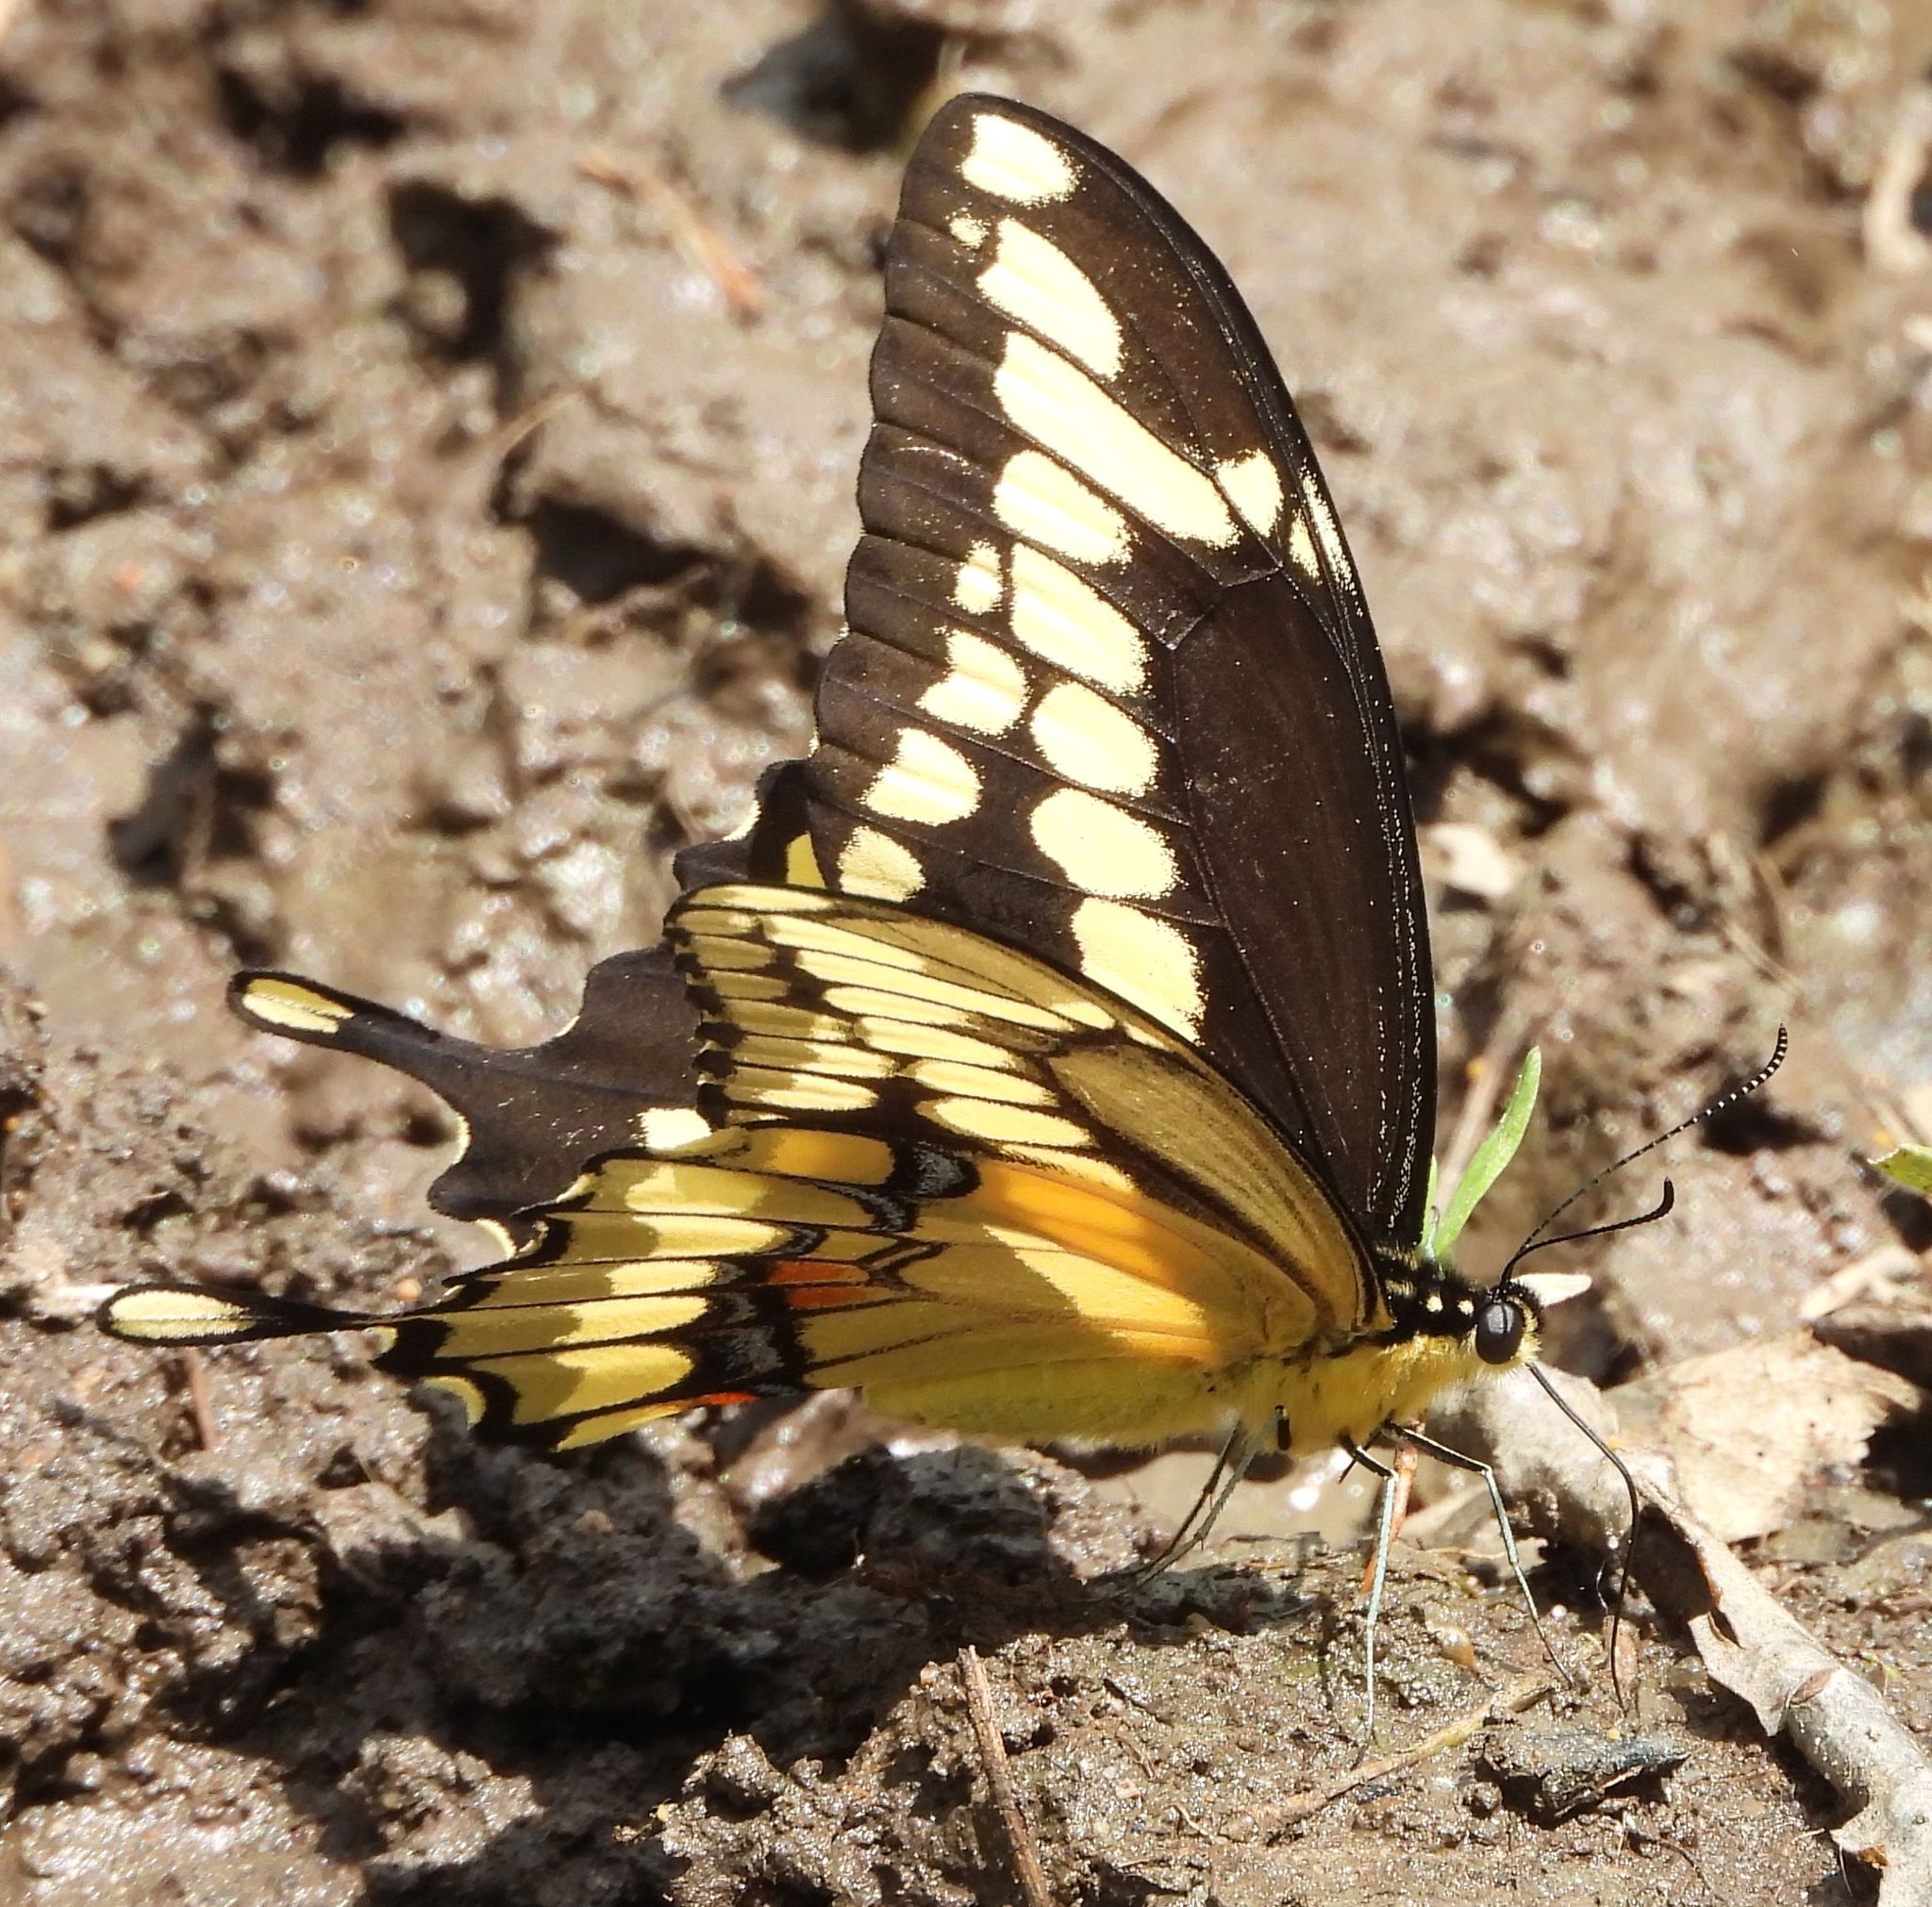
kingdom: Animalia
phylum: Arthropoda
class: Insecta
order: Lepidoptera
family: Papilionidae
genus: Papilio
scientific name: Papilio cresphontes
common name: Giant swallowtail
